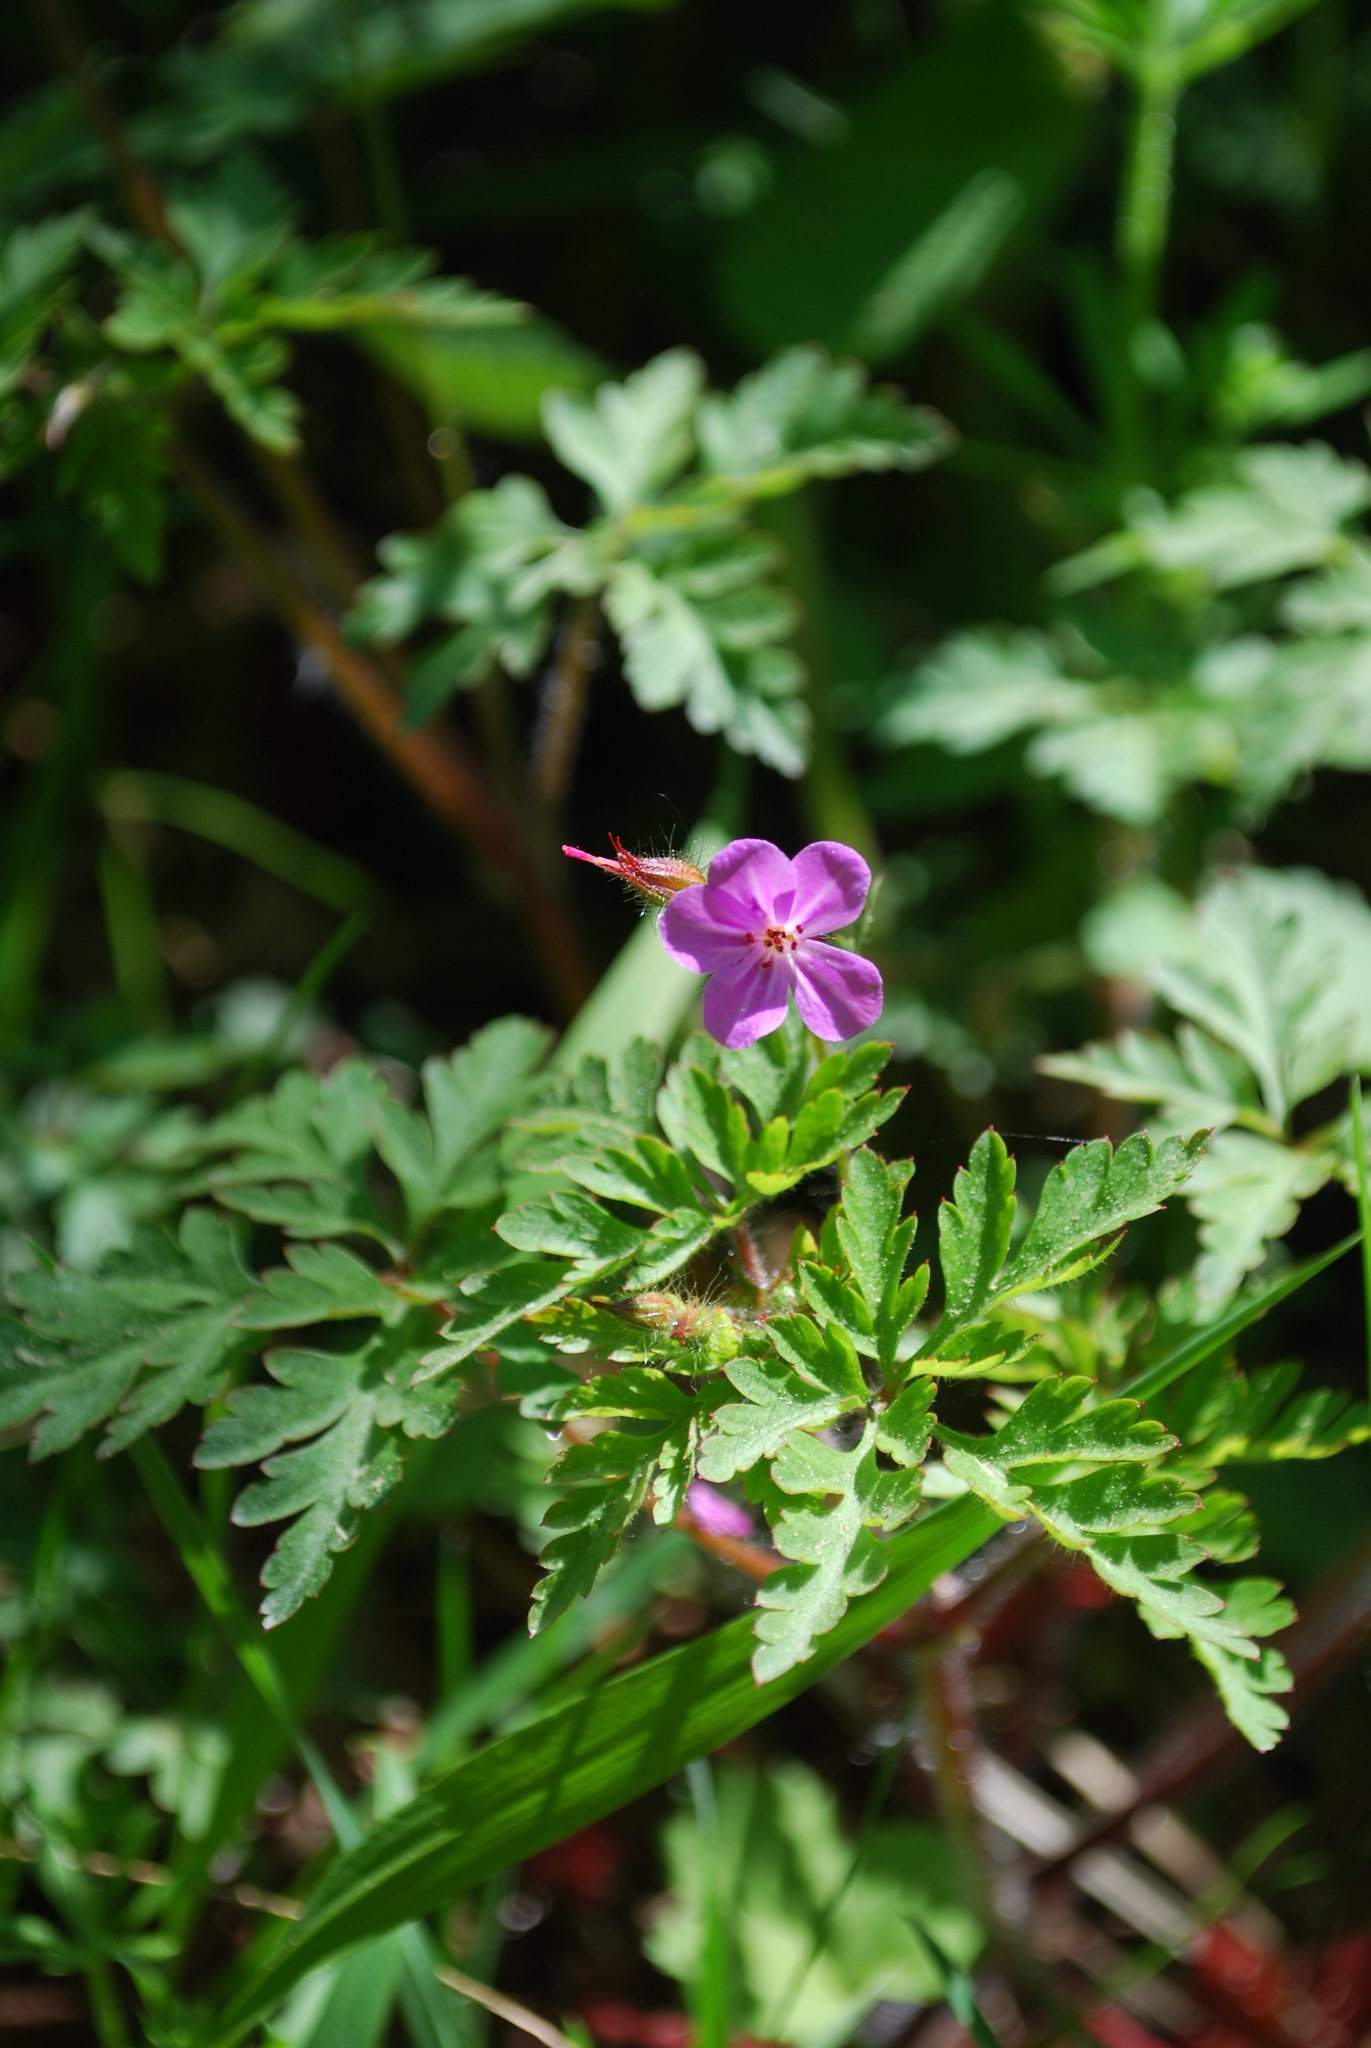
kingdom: Plantae
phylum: Tracheophyta
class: Magnoliopsida
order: Geraniales
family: Geraniaceae
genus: Geranium
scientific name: Geranium robertianum
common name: Herb-robert
